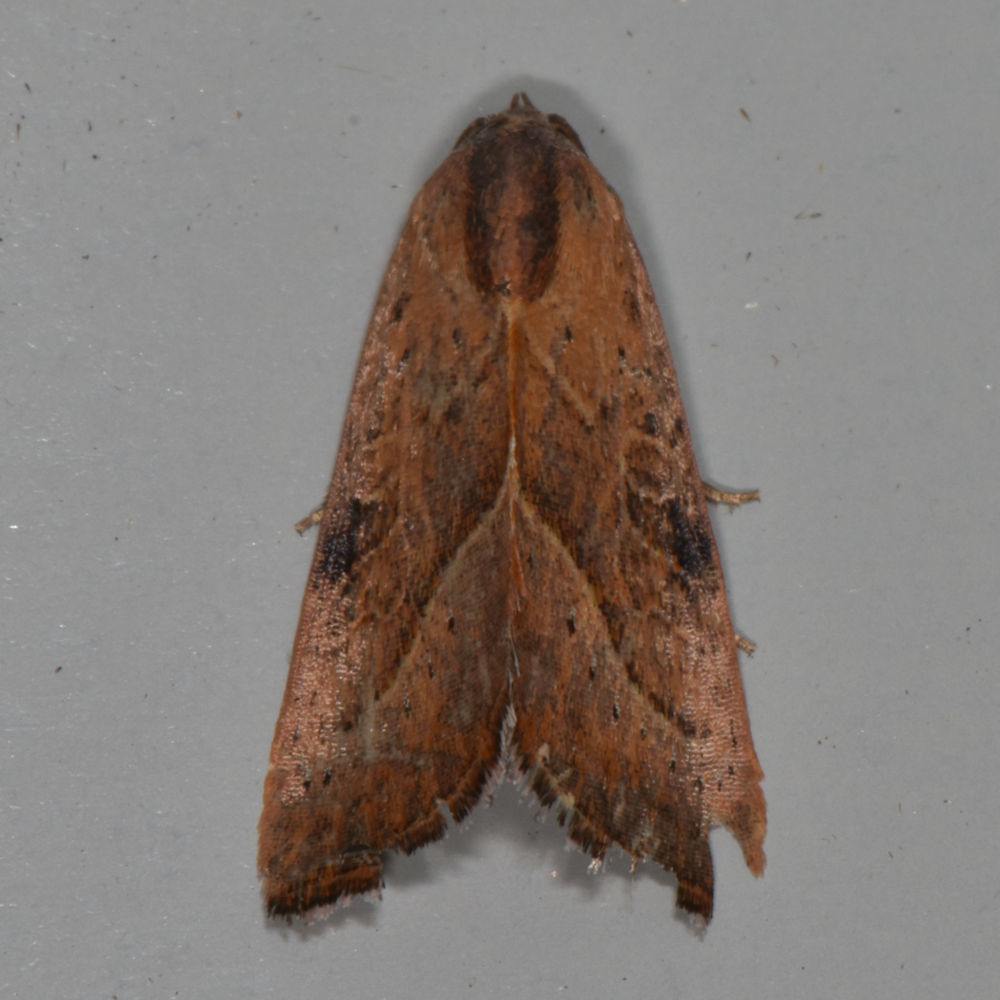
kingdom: Animalia
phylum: Arthropoda
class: Insecta
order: Lepidoptera
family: Noctuidae
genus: Galgula
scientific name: Galgula partita
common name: Wedgeling
